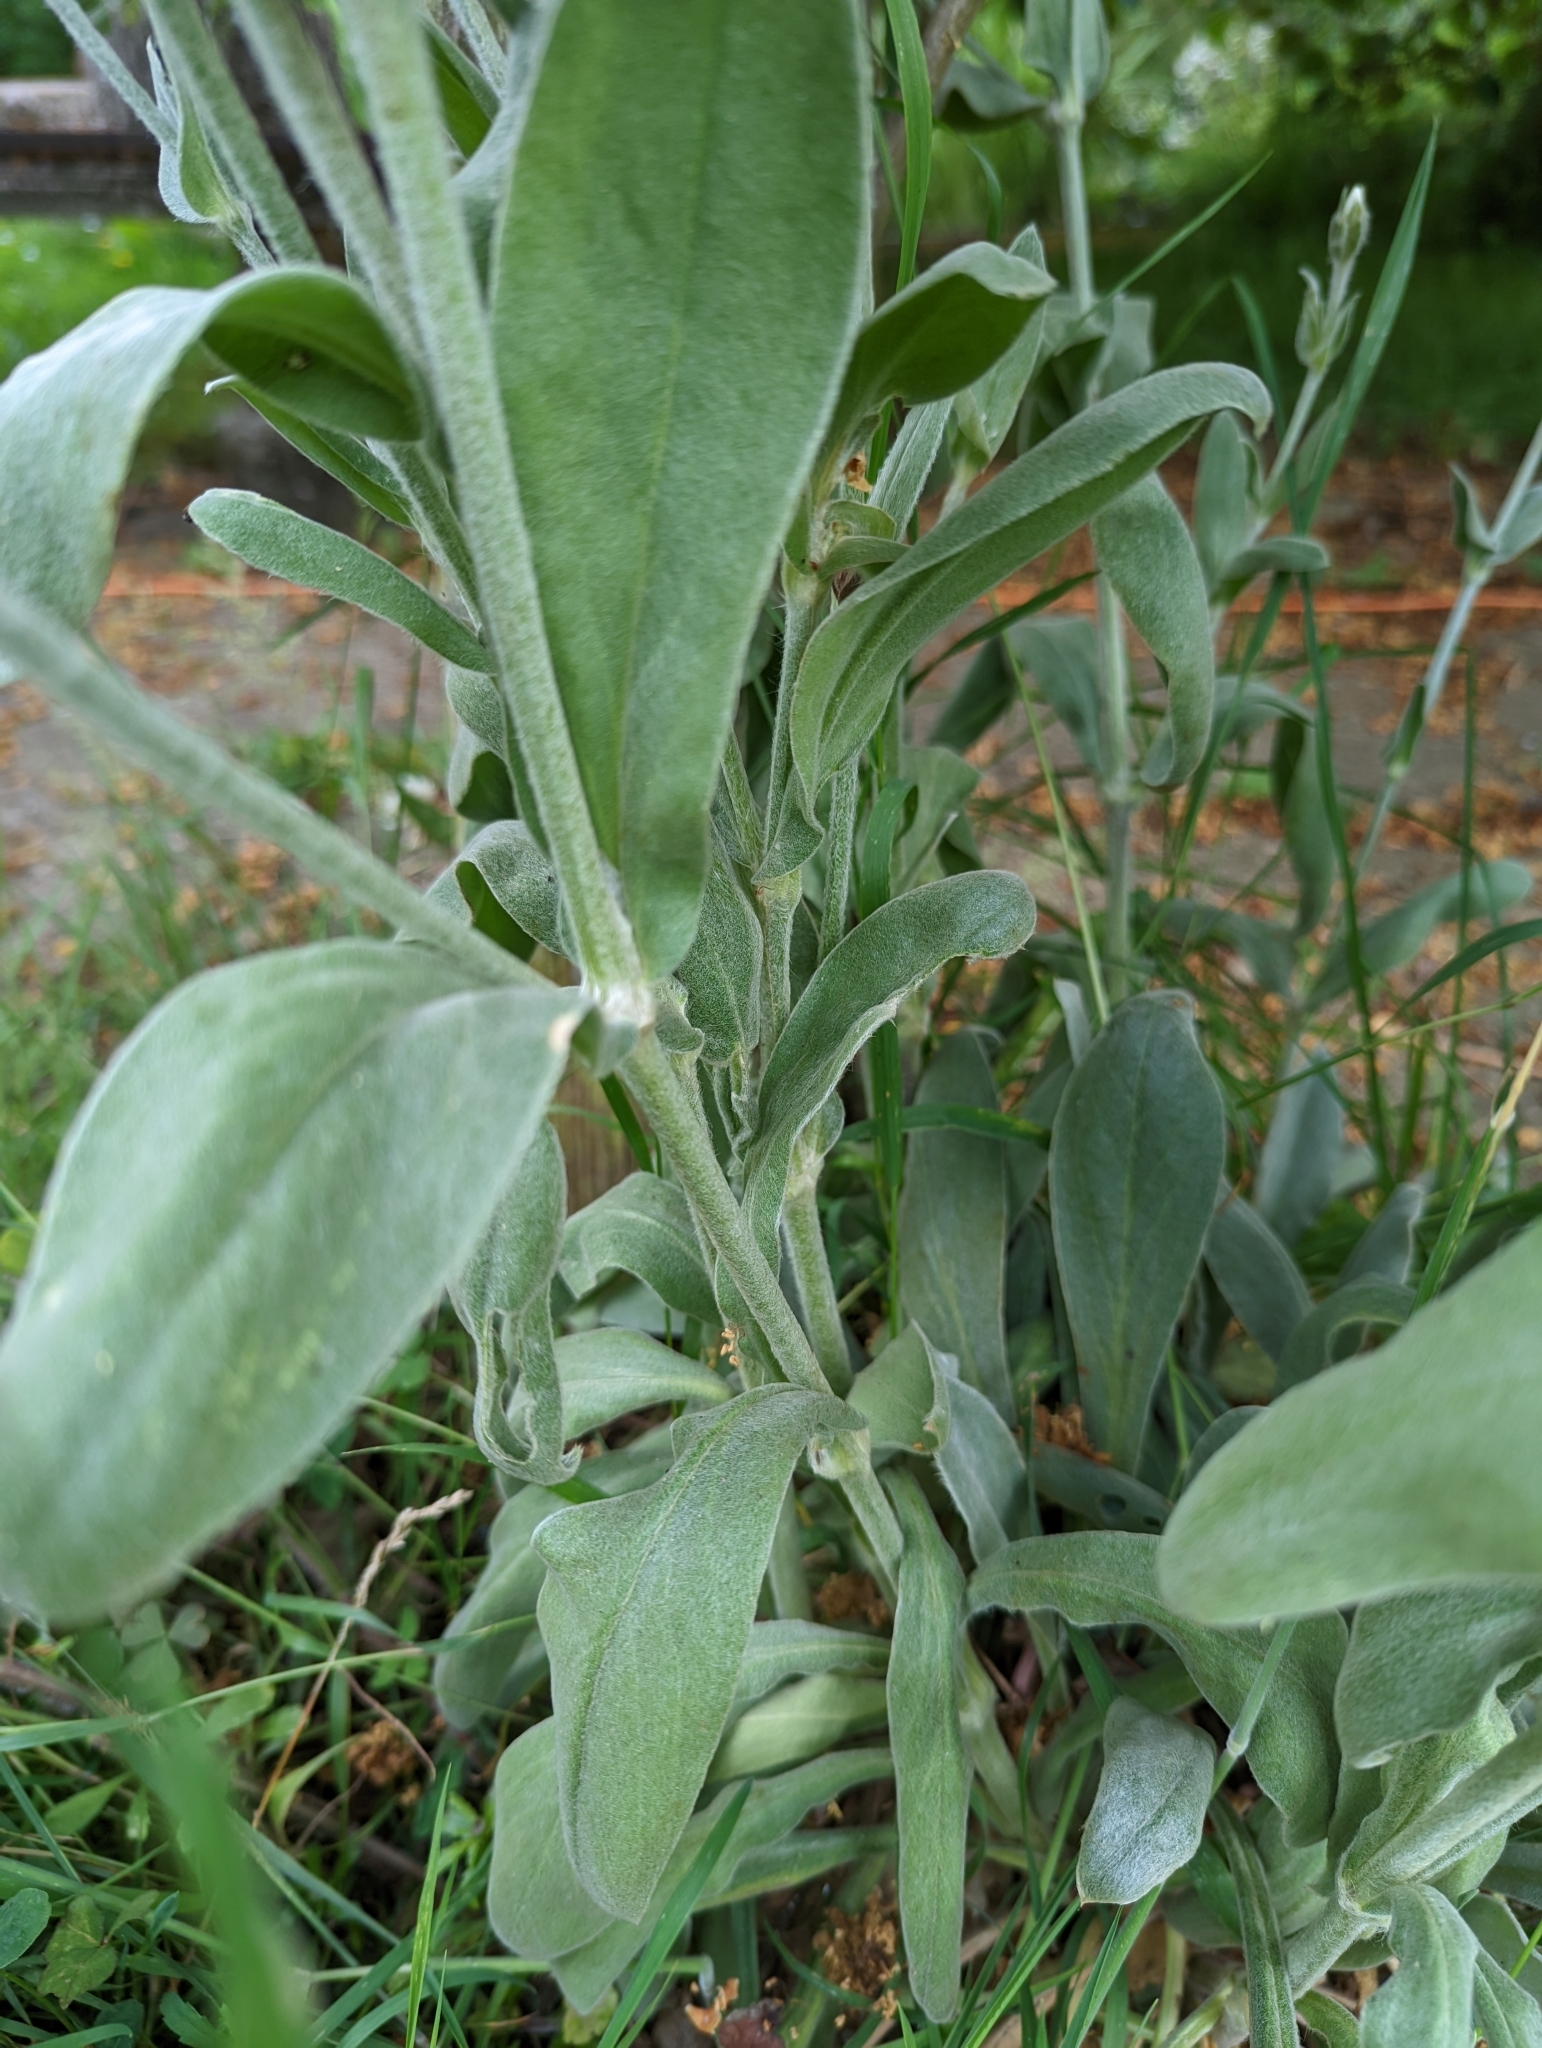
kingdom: Plantae
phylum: Tracheophyta
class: Magnoliopsida
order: Caryophyllales
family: Caryophyllaceae
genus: Silene
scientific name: Silene coronaria
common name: Rose campion
